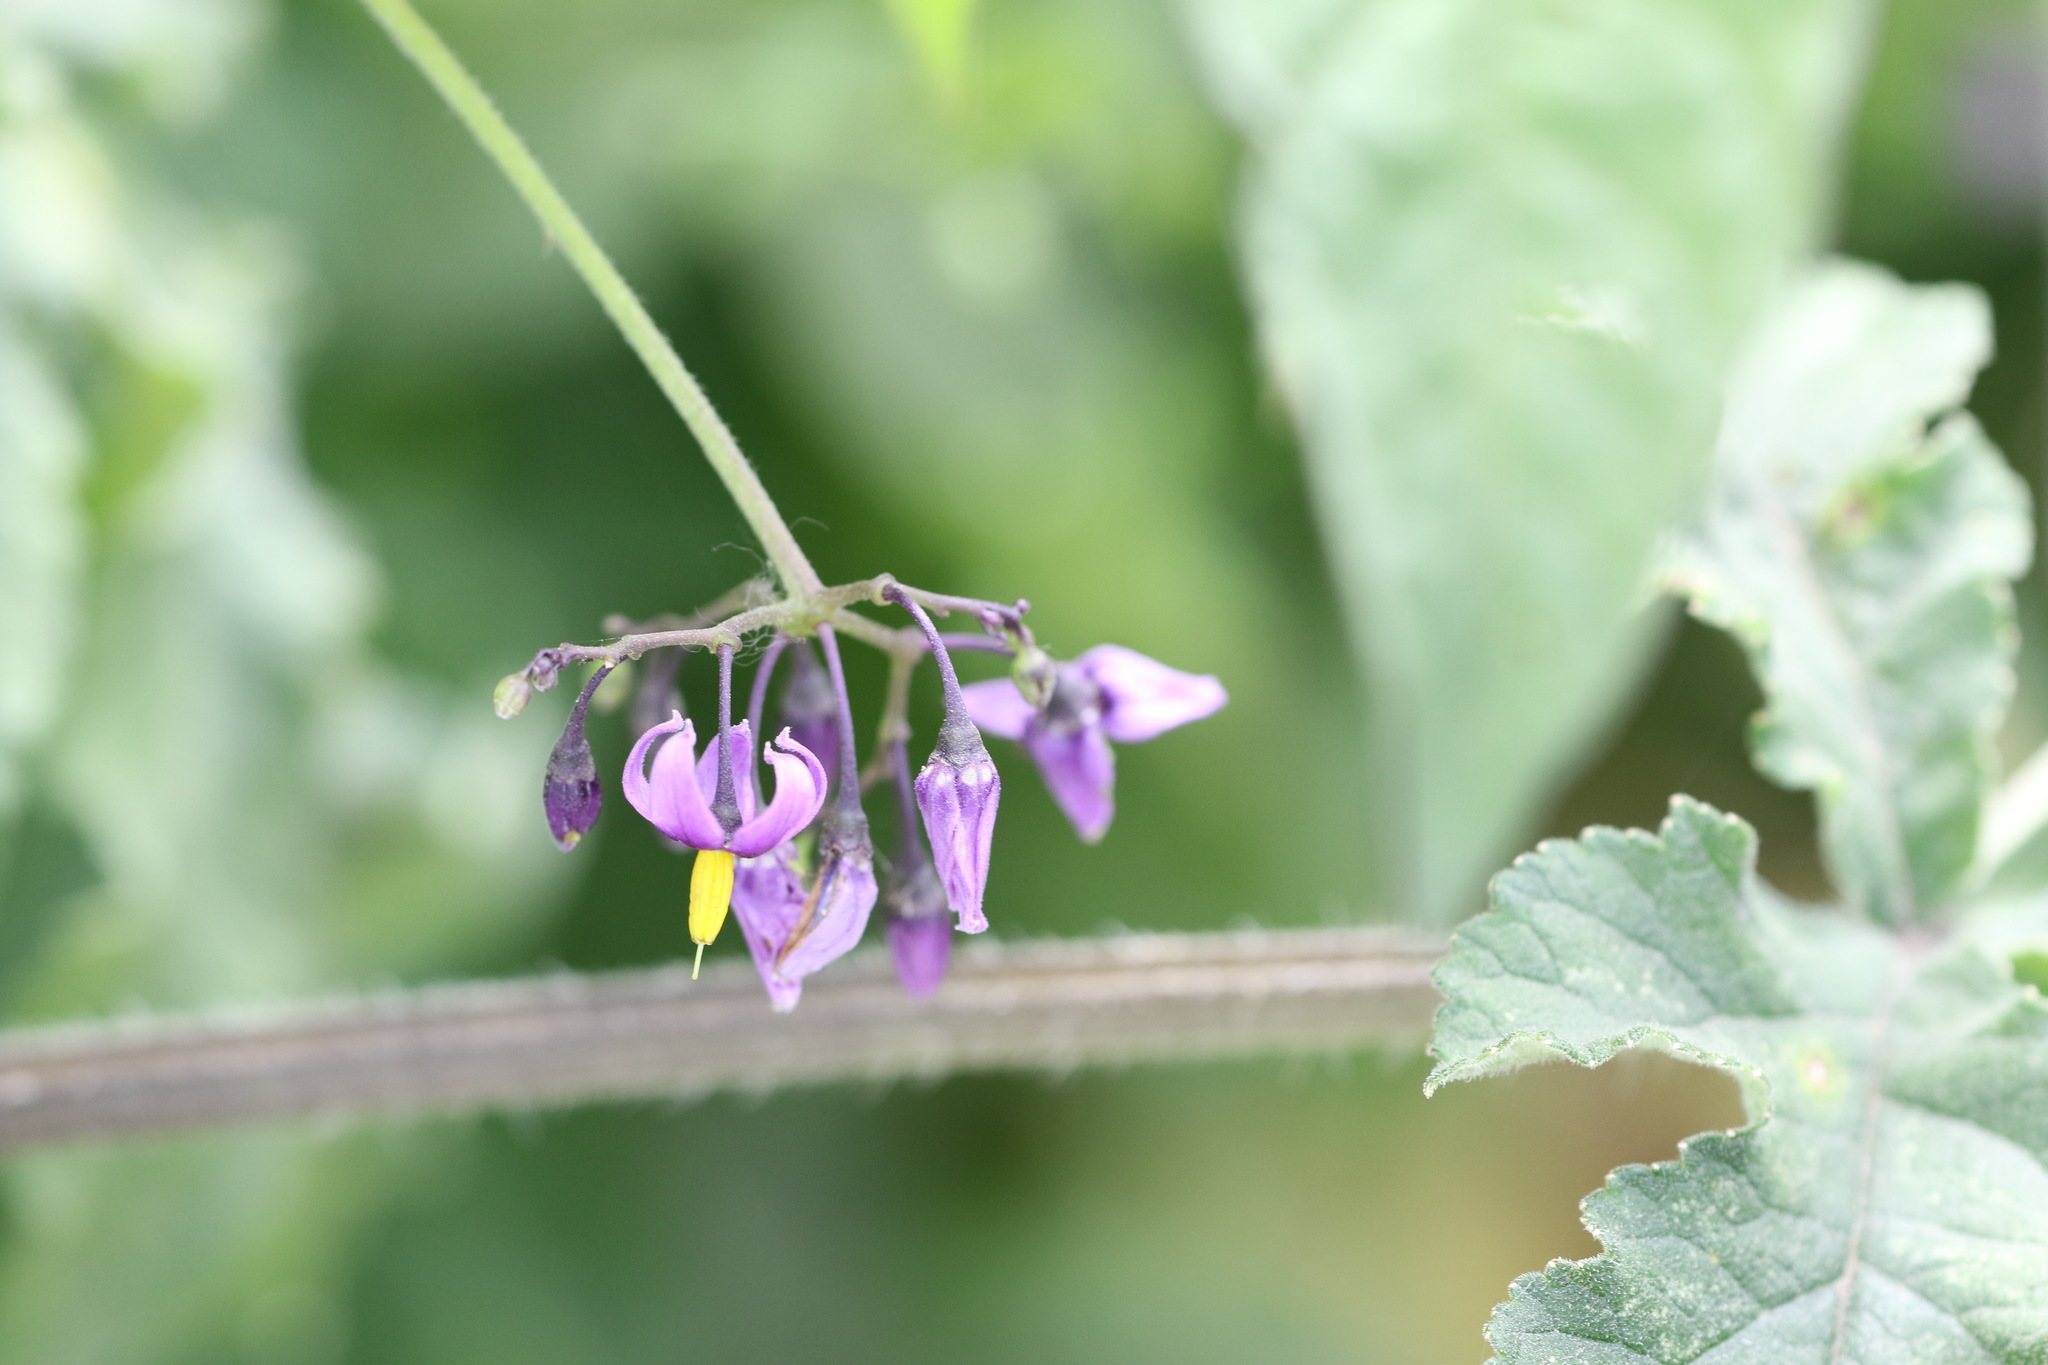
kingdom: Plantae
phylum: Tracheophyta
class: Magnoliopsida
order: Solanales
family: Solanaceae
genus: Solanum
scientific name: Solanum dulcamara
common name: Climbing nightshade
